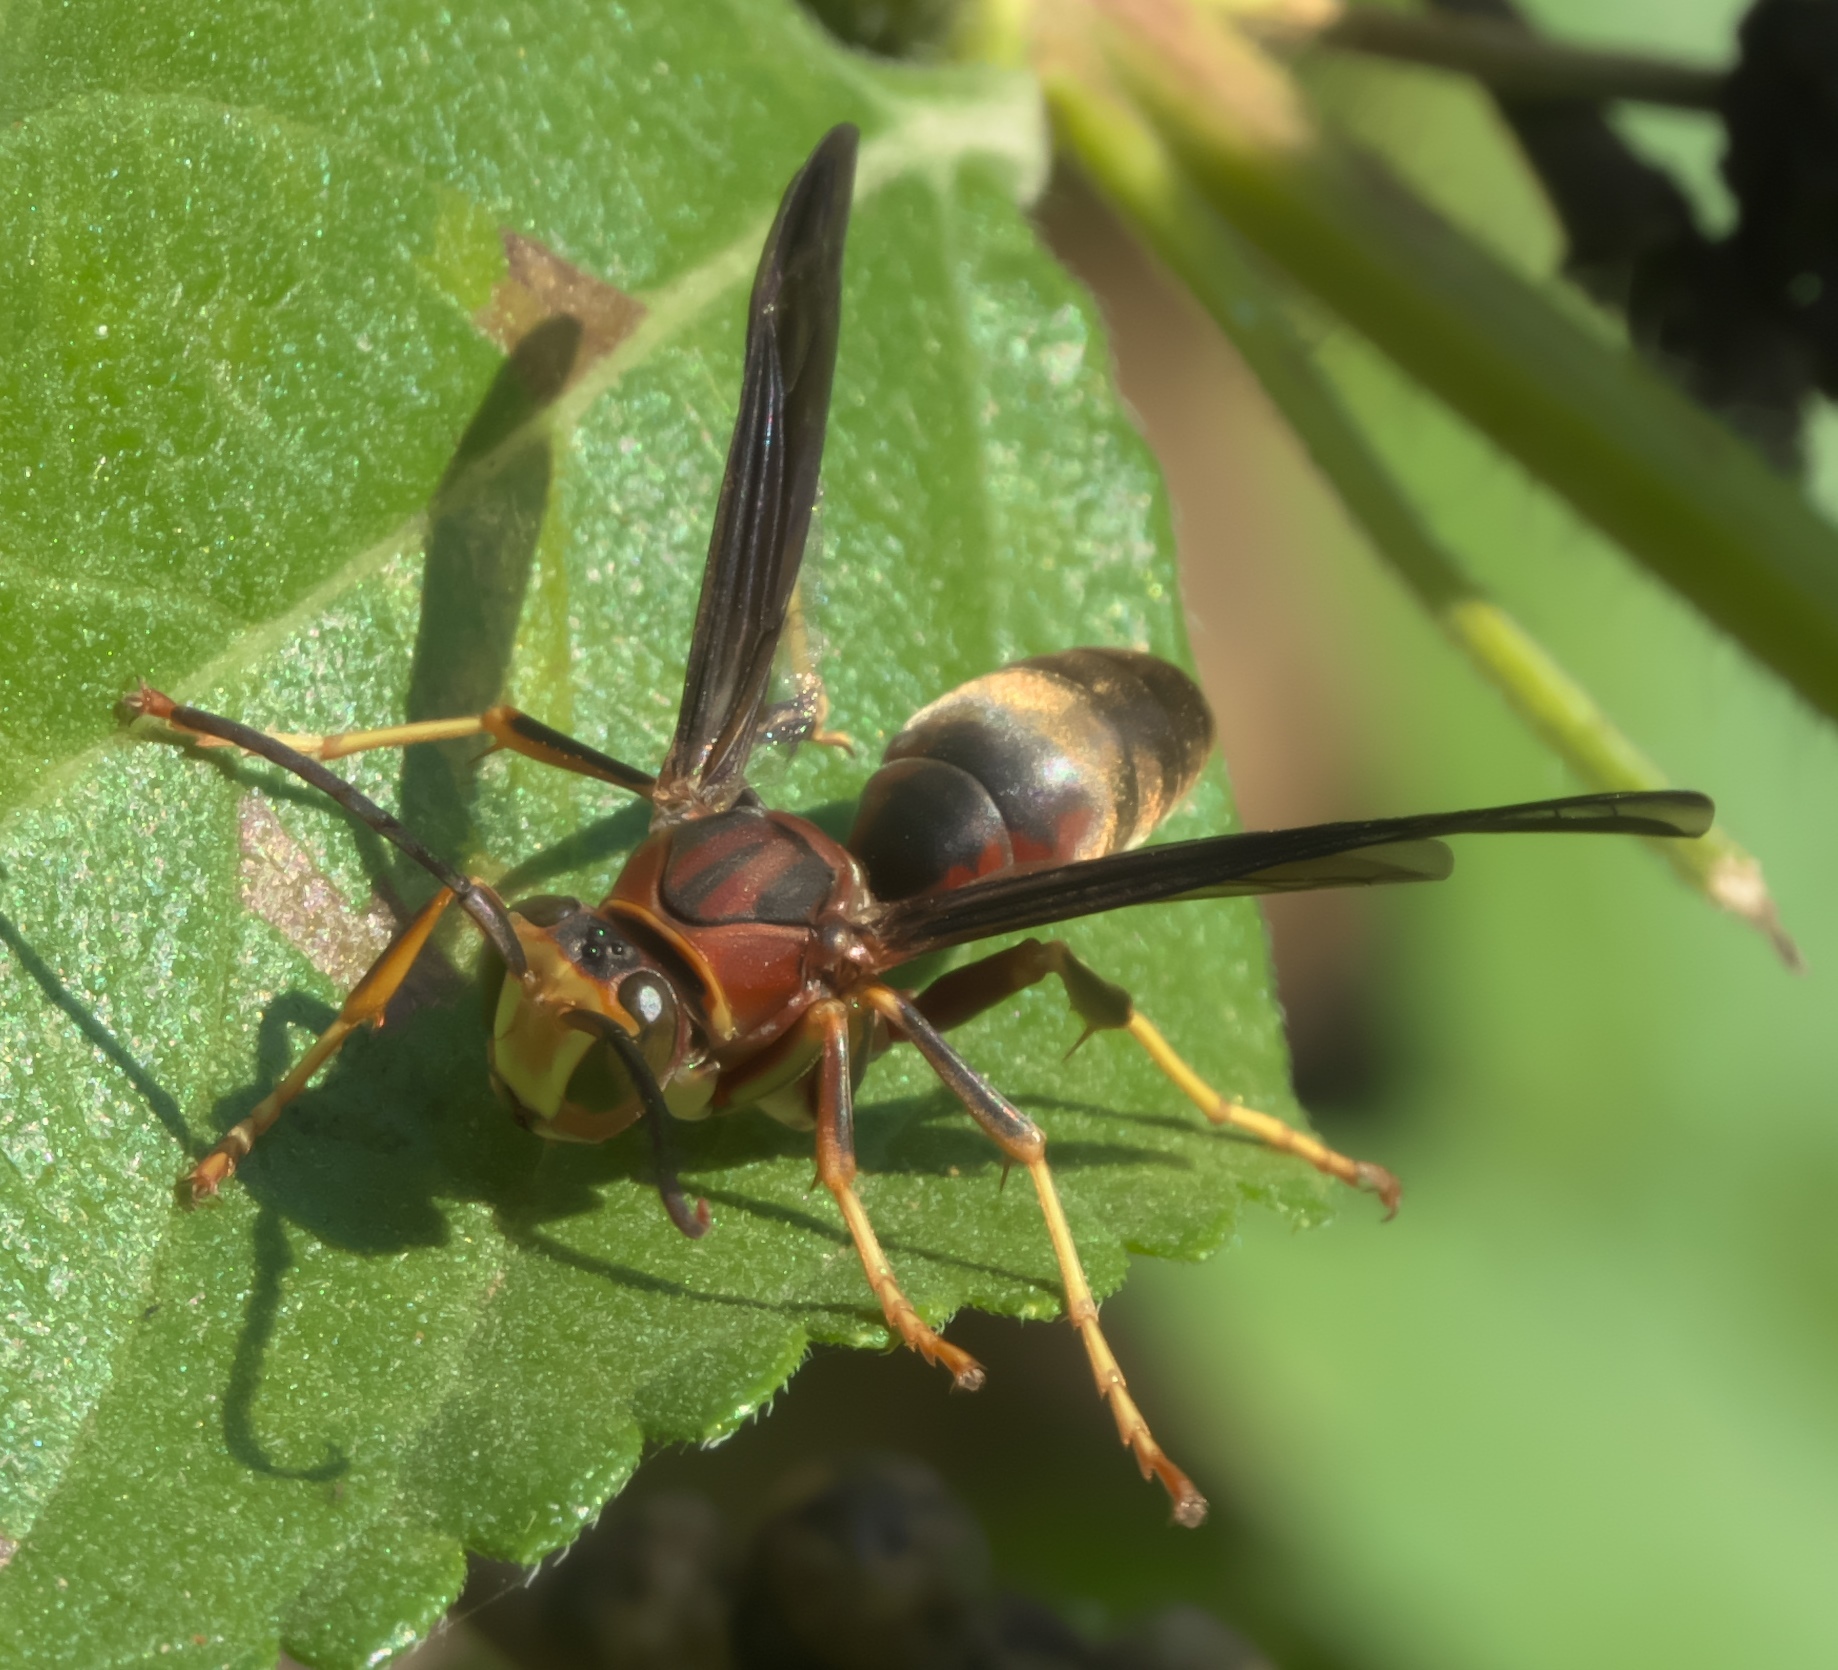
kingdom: Animalia
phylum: Arthropoda
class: Insecta
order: Hymenoptera
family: Eumenidae
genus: Polistes
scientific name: Polistes metricus
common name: Metric paper wasp
